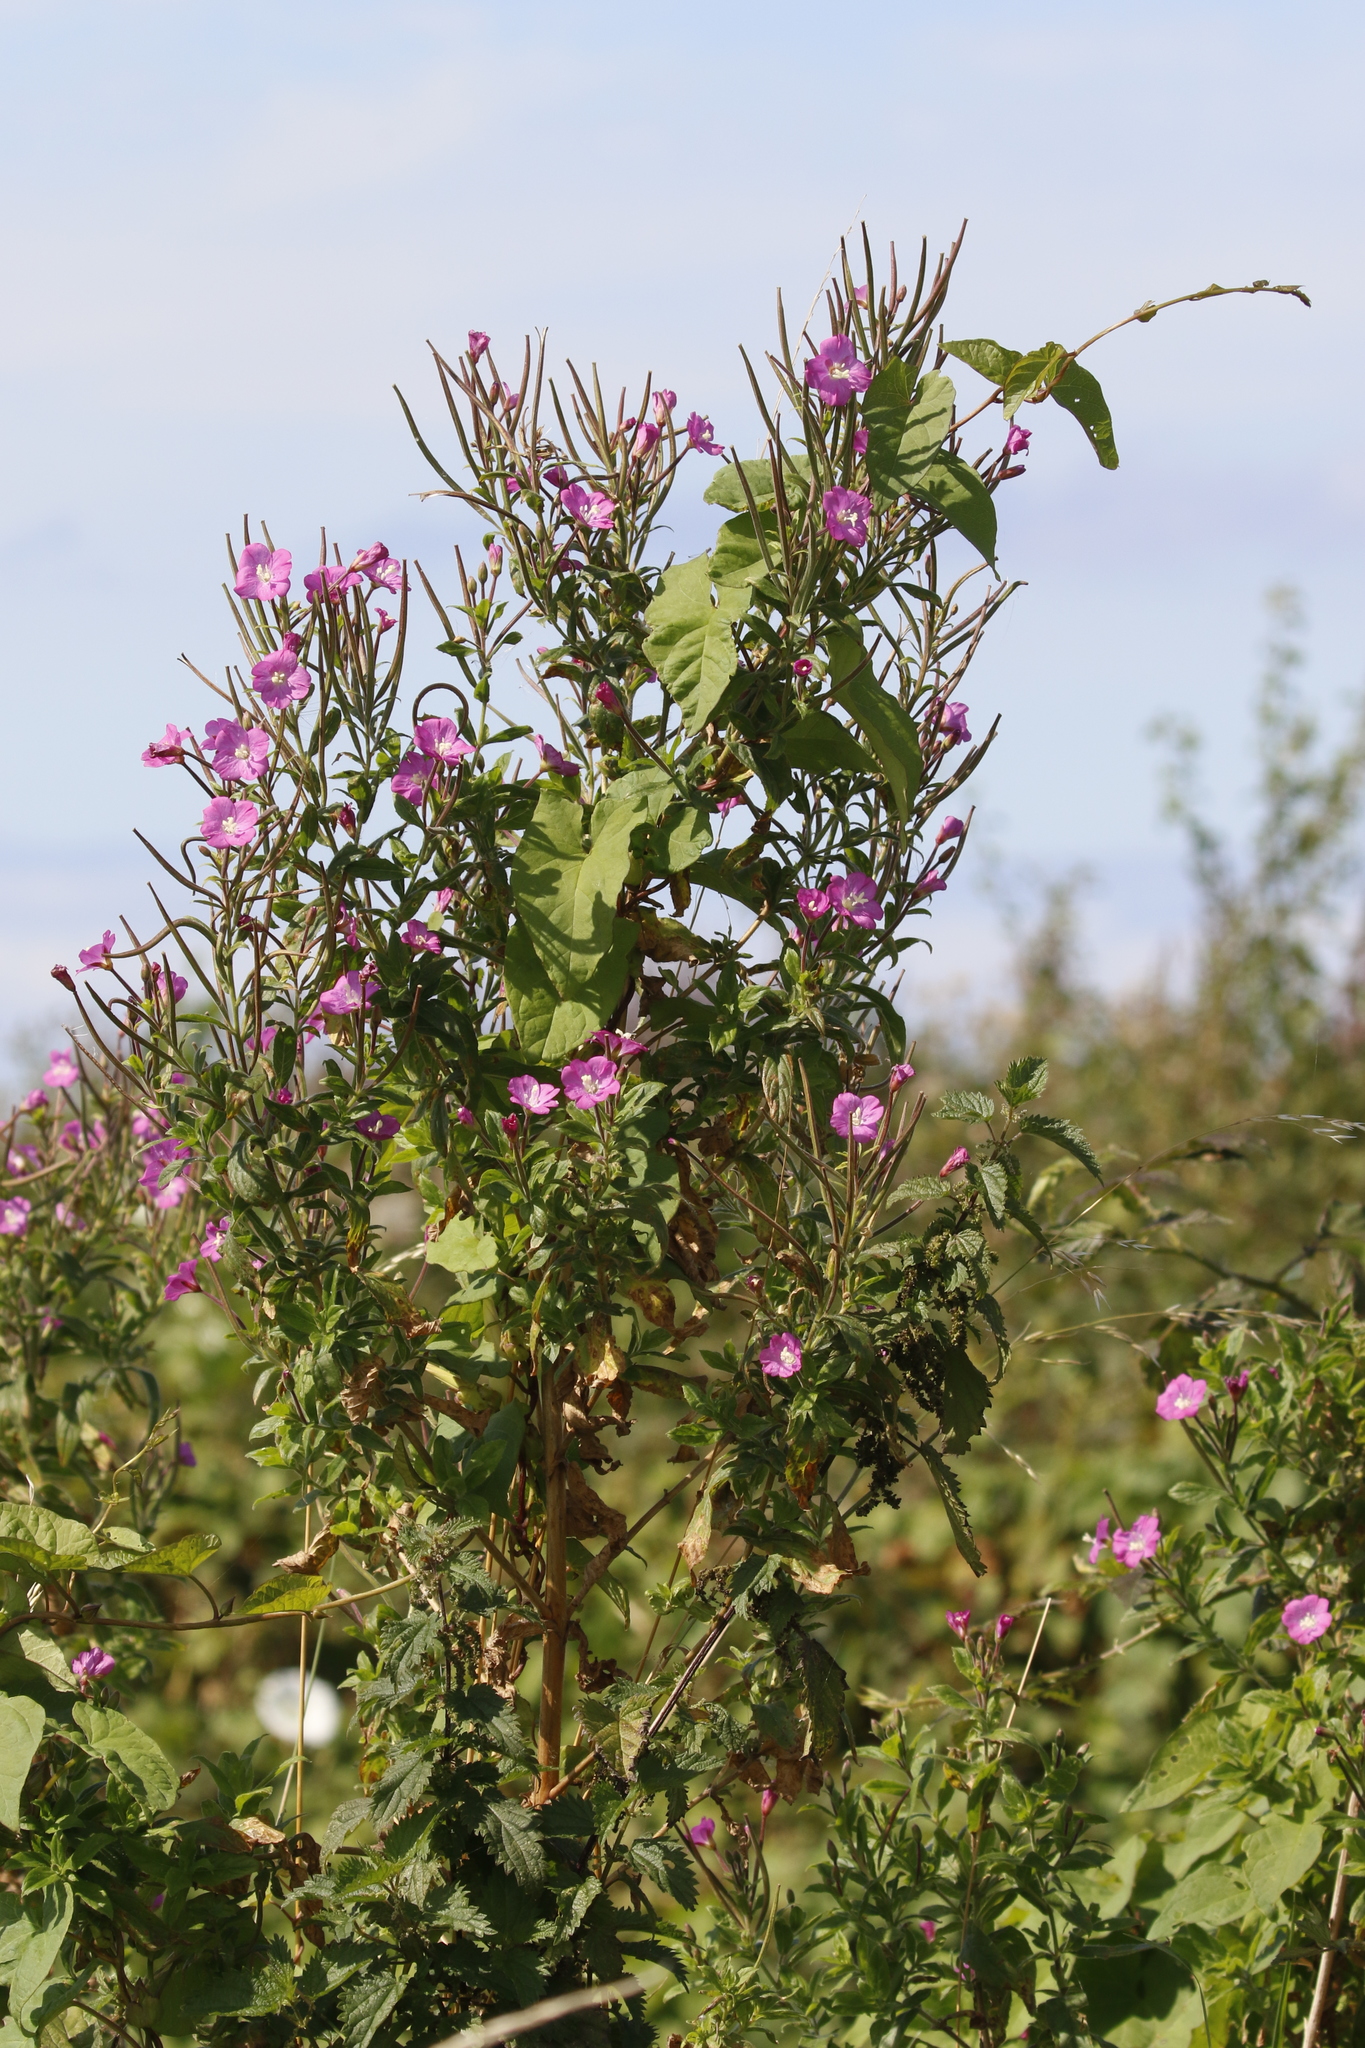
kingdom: Plantae
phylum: Tracheophyta
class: Magnoliopsida
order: Myrtales
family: Onagraceae
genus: Epilobium
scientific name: Epilobium hirsutum
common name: Great willowherb
